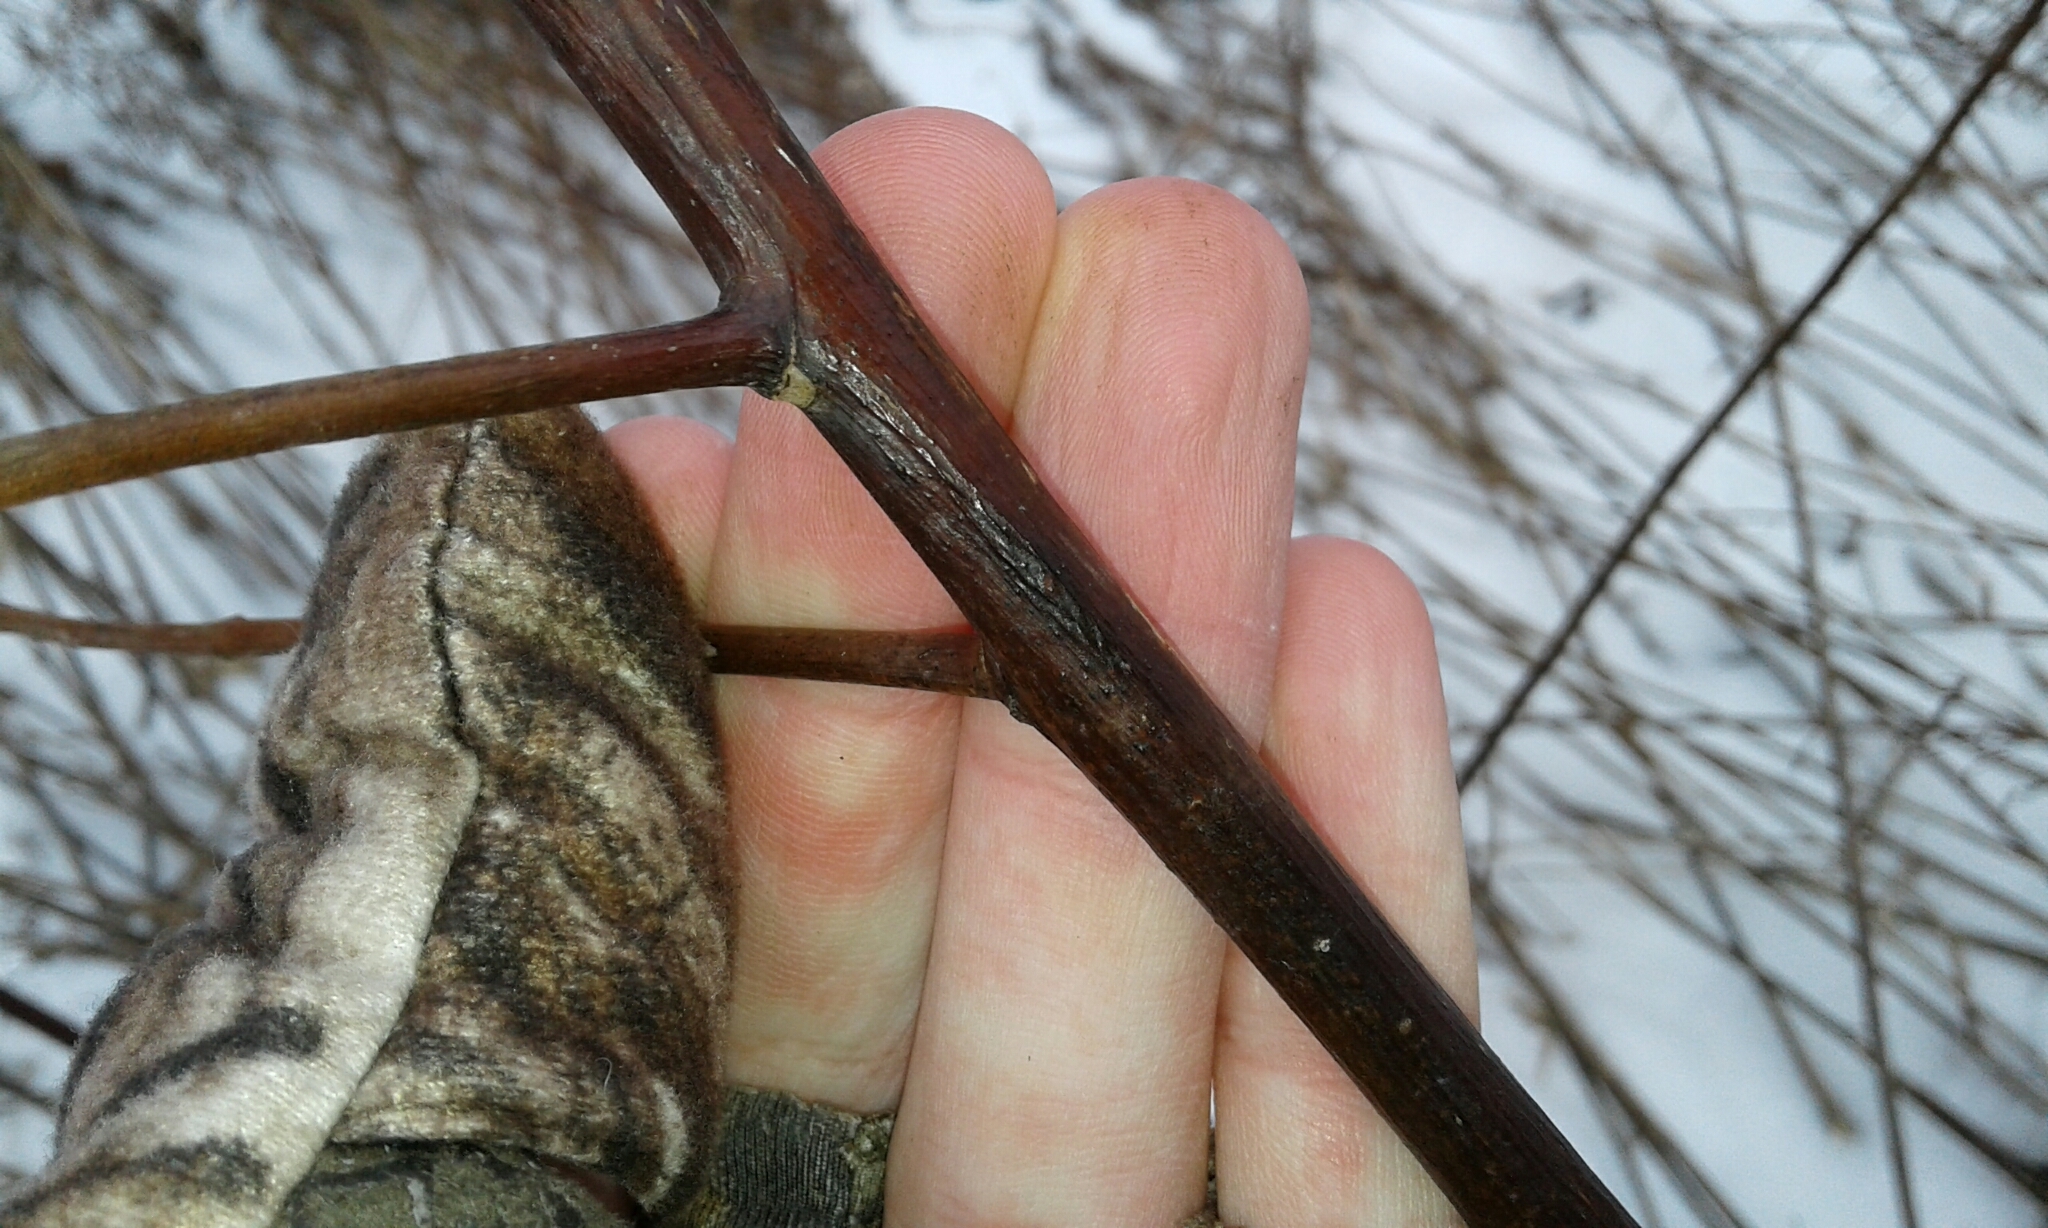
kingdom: Plantae
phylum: Tracheophyta
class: Magnoliopsida
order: Gentianales
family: Apocynaceae
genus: Apocynum
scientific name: Apocynum cannabinum
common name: Hemp dogbane
